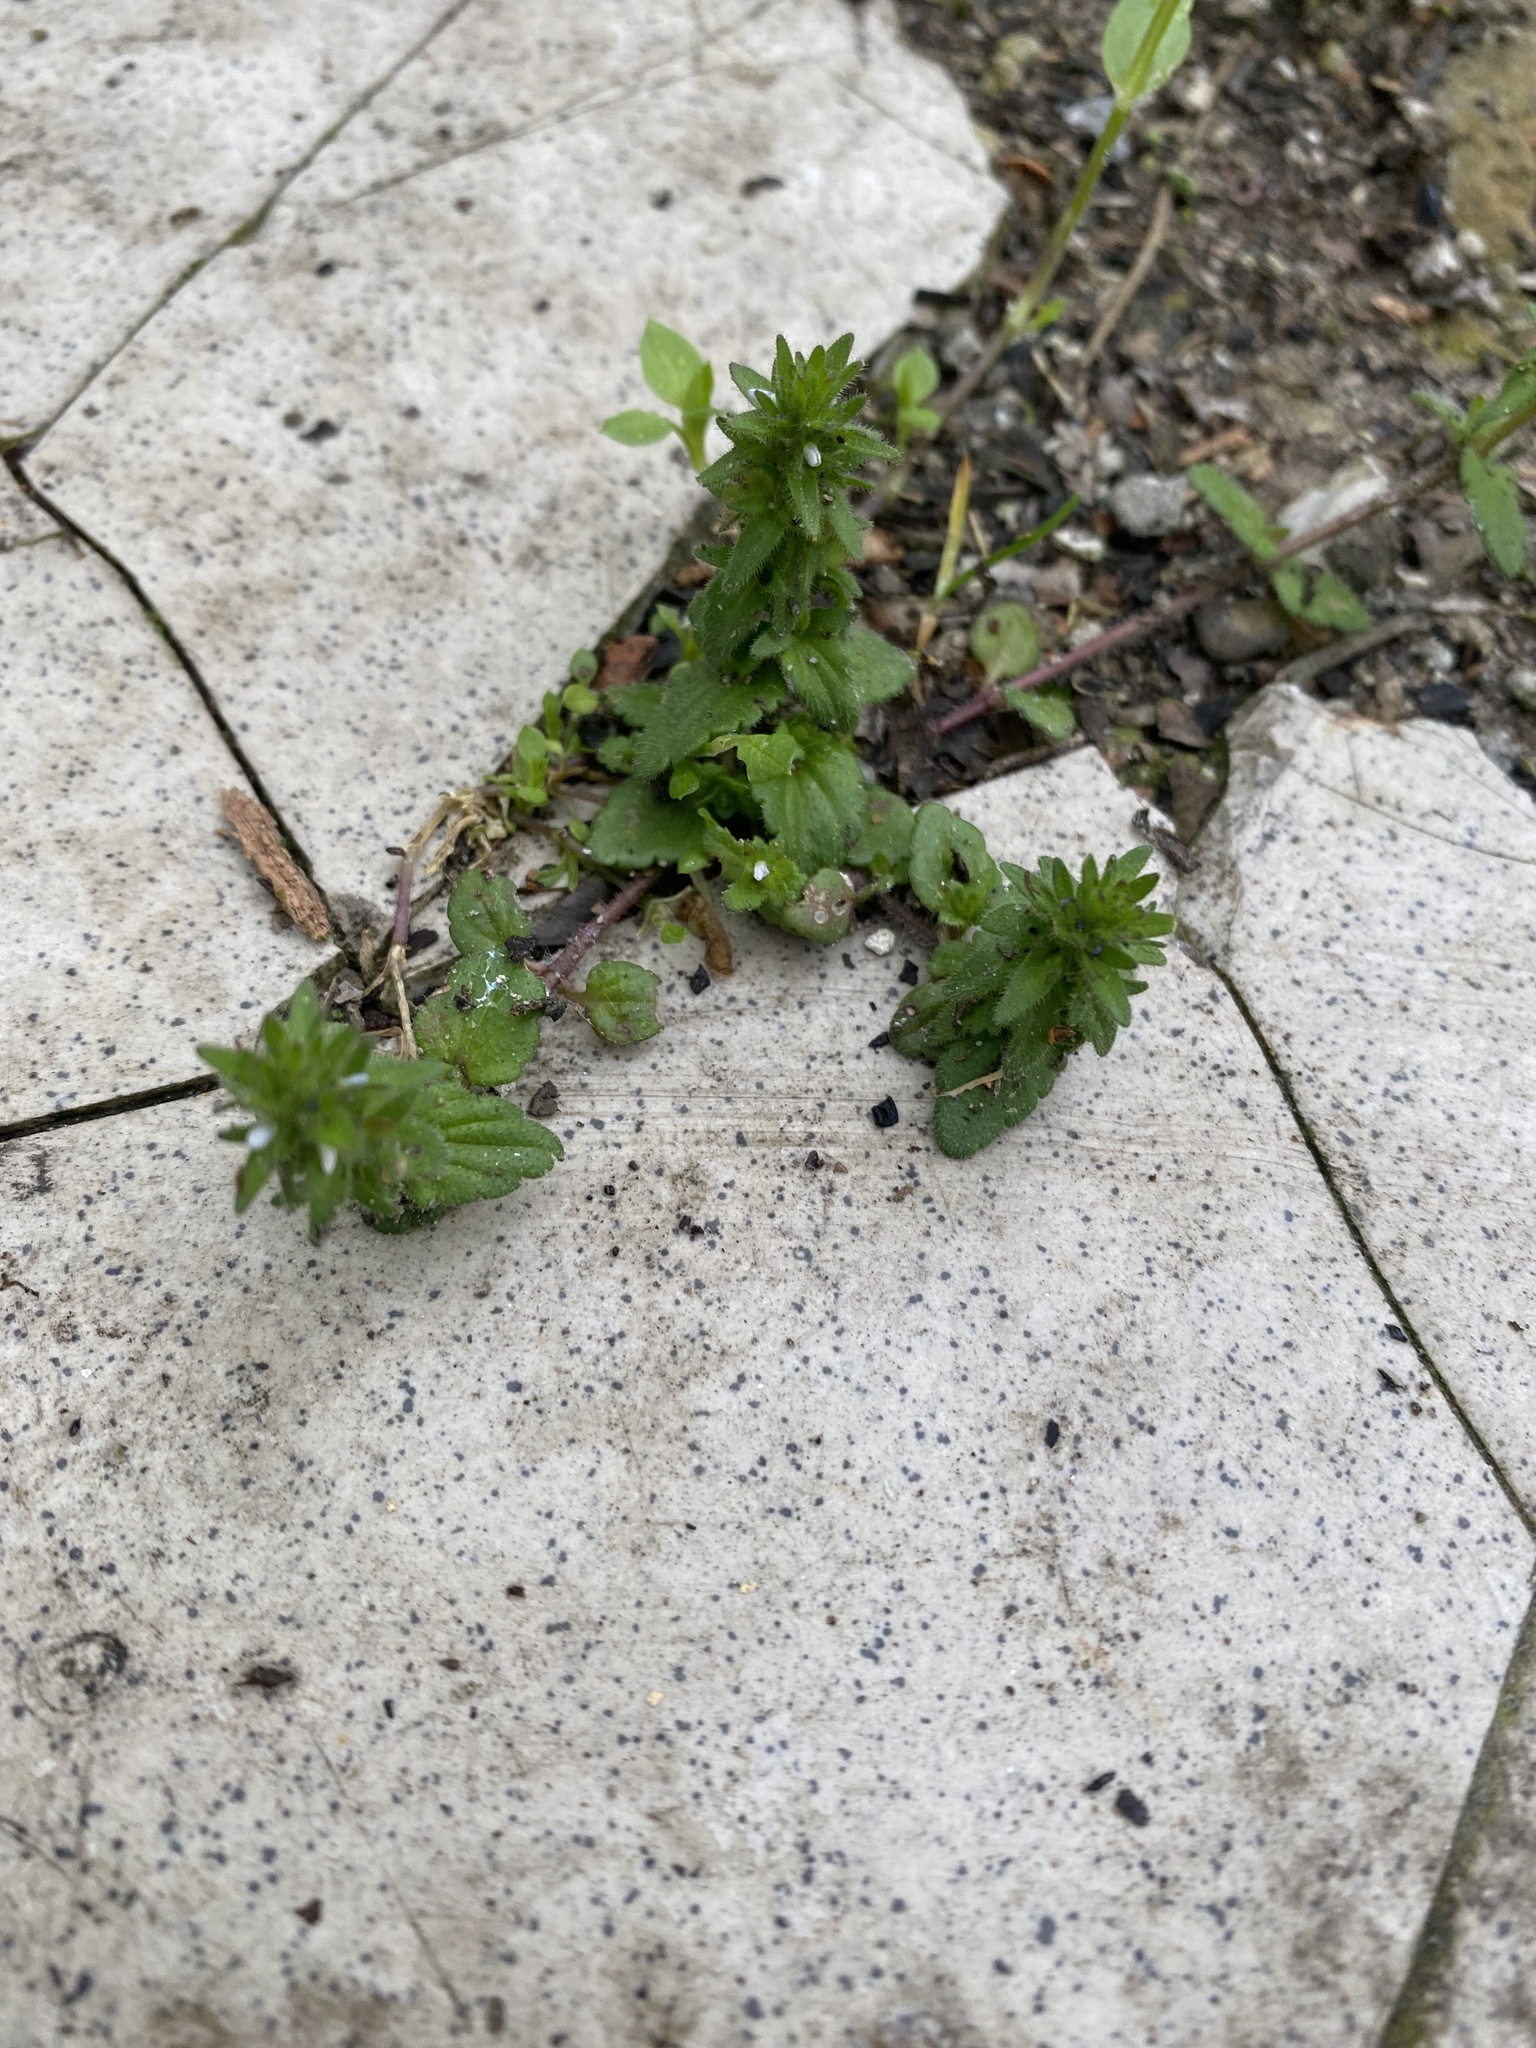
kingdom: Plantae
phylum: Tracheophyta
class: Magnoliopsida
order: Lamiales
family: Plantaginaceae
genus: Veronica
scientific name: Veronica arvensis
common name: Corn speedwell
